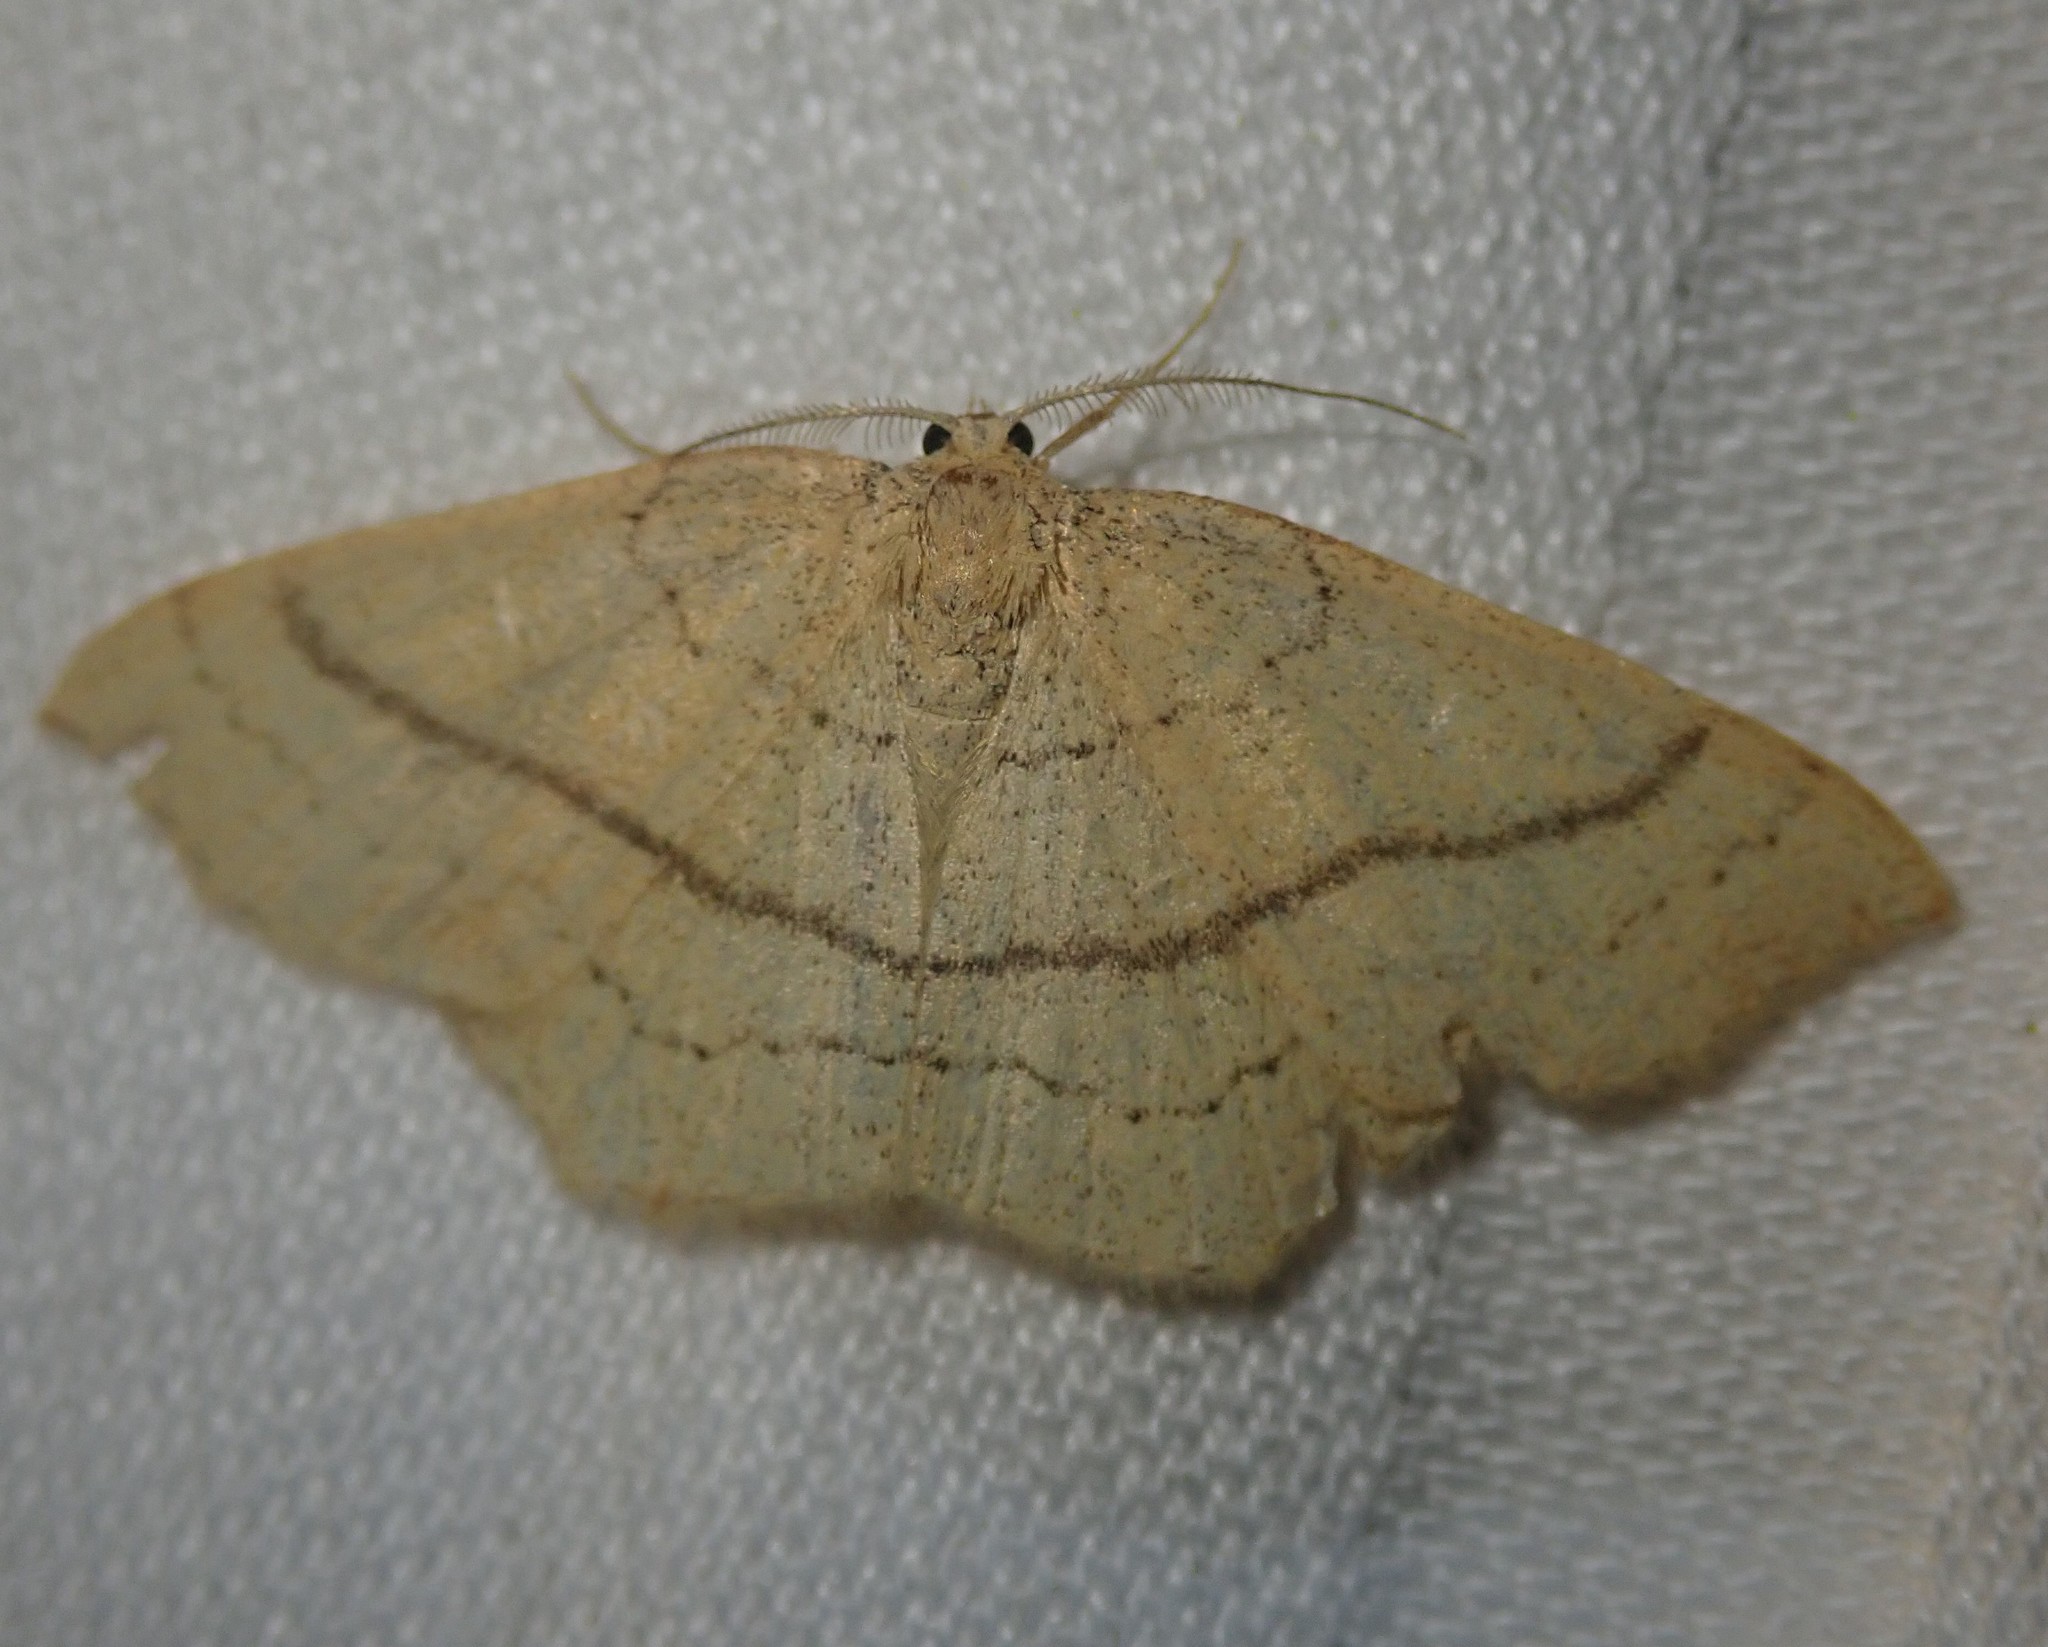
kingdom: Animalia
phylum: Arthropoda
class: Insecta
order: Lepidoptera
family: Geometridae
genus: Cyclophora
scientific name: Cyclophora linearia
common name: Clay triple-lines
